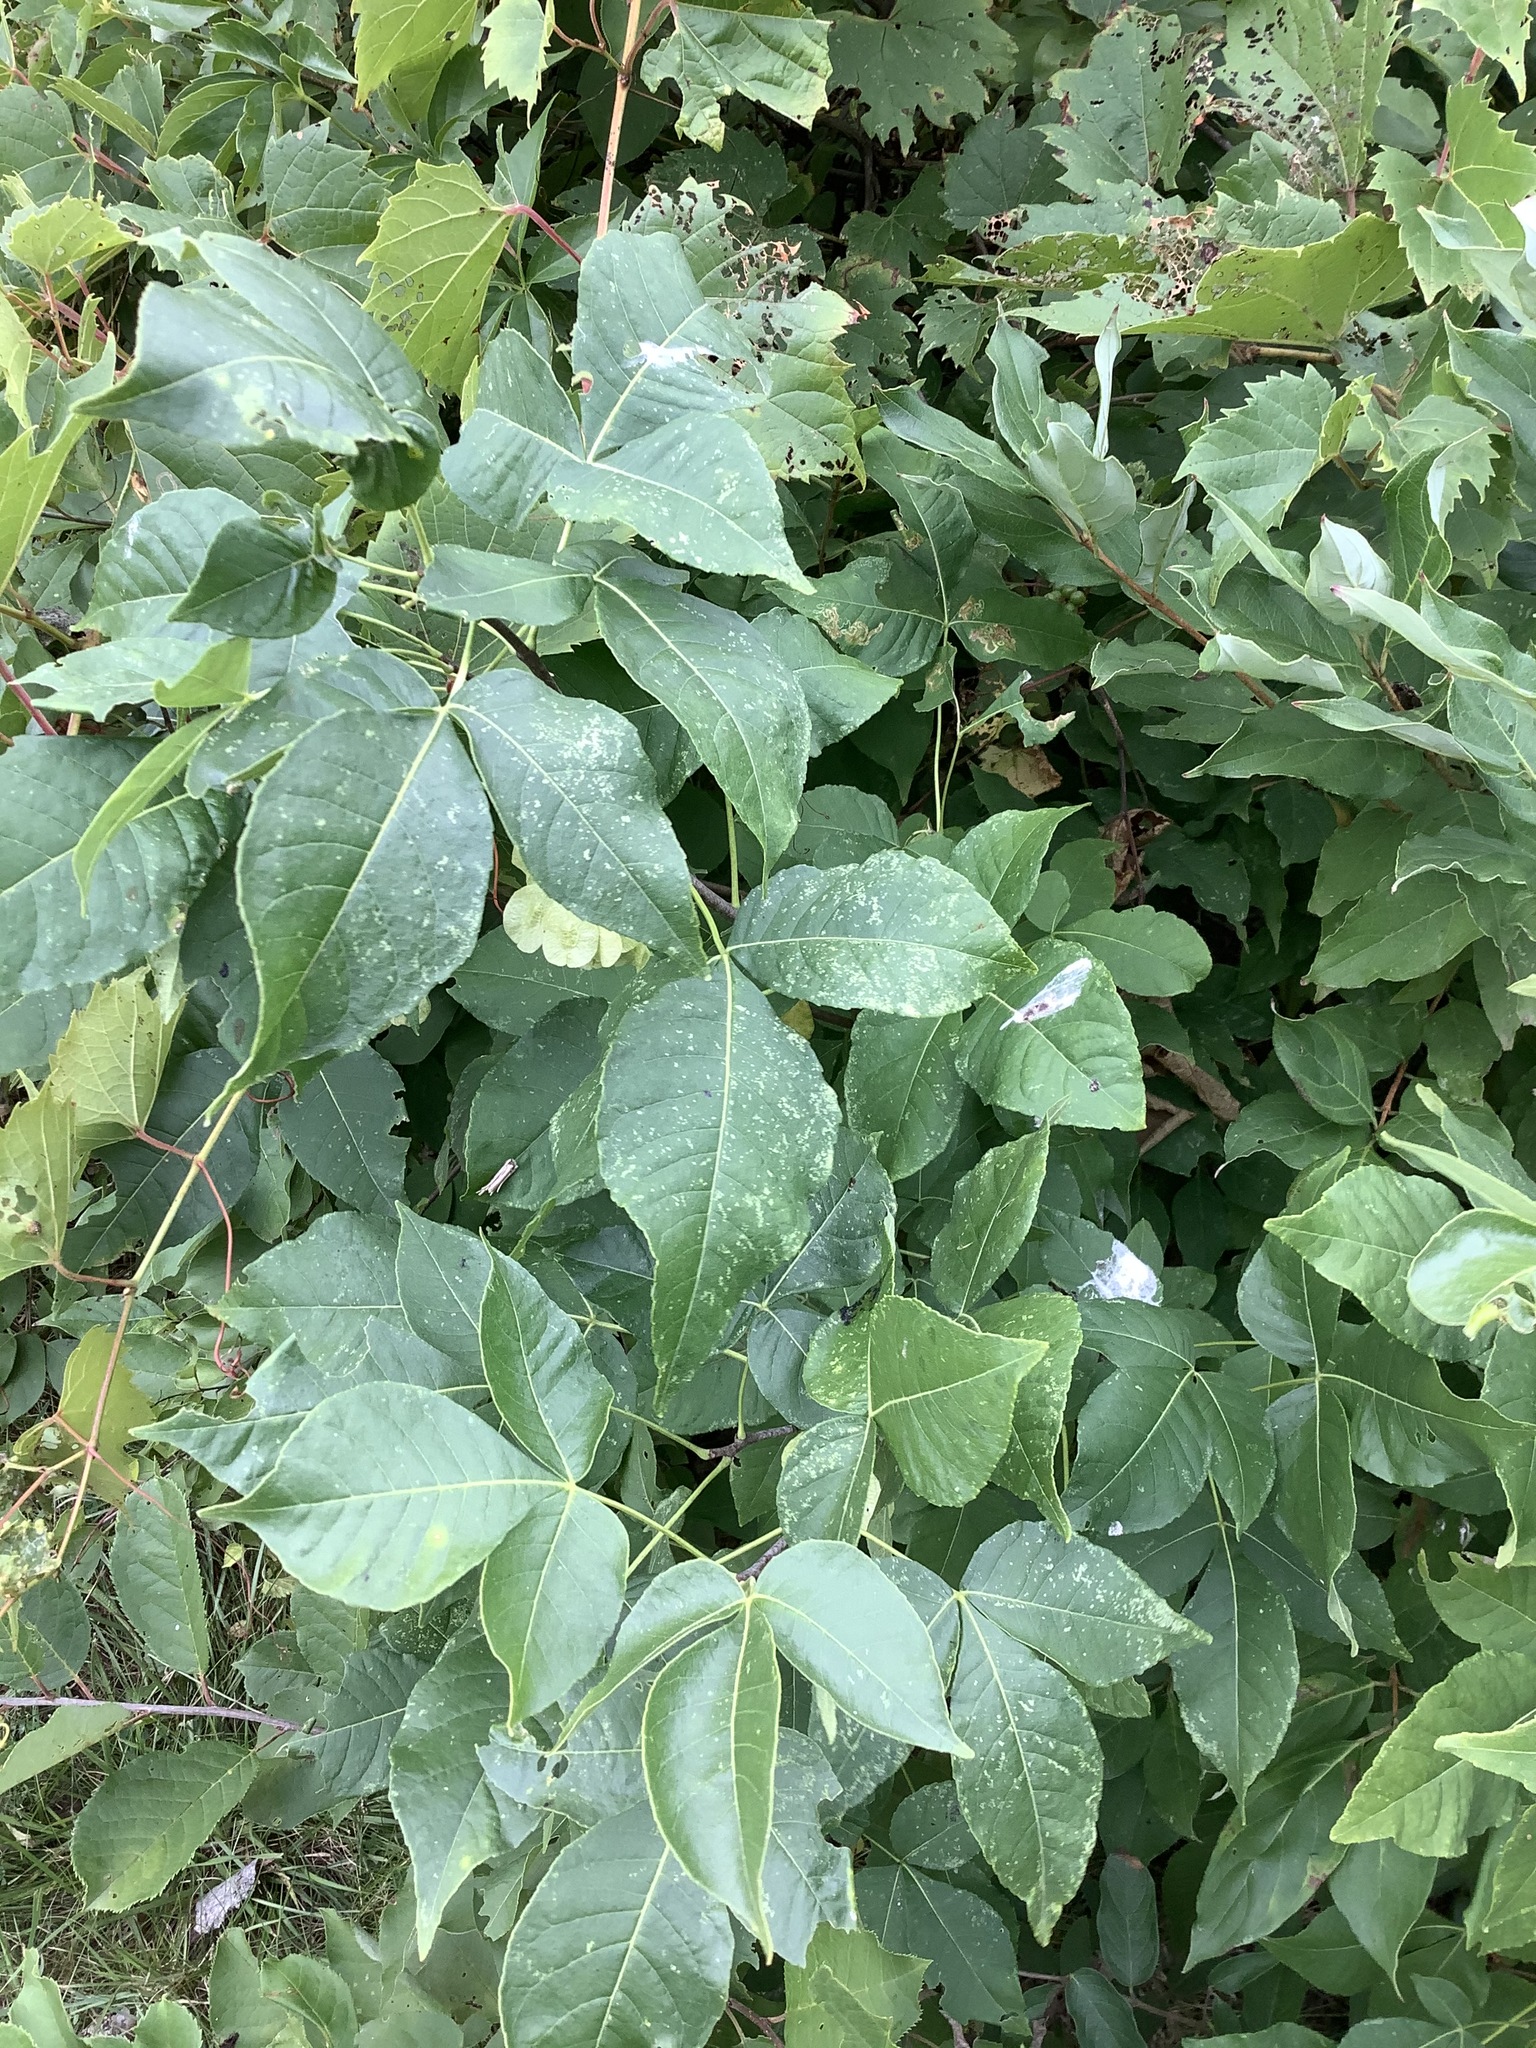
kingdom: Plantae
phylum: Tracheophyta
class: Magnoliopsida
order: Sapindales
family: Rutaceae
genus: Ptelea
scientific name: Ptelea trifoliata
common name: Common hop-tree
